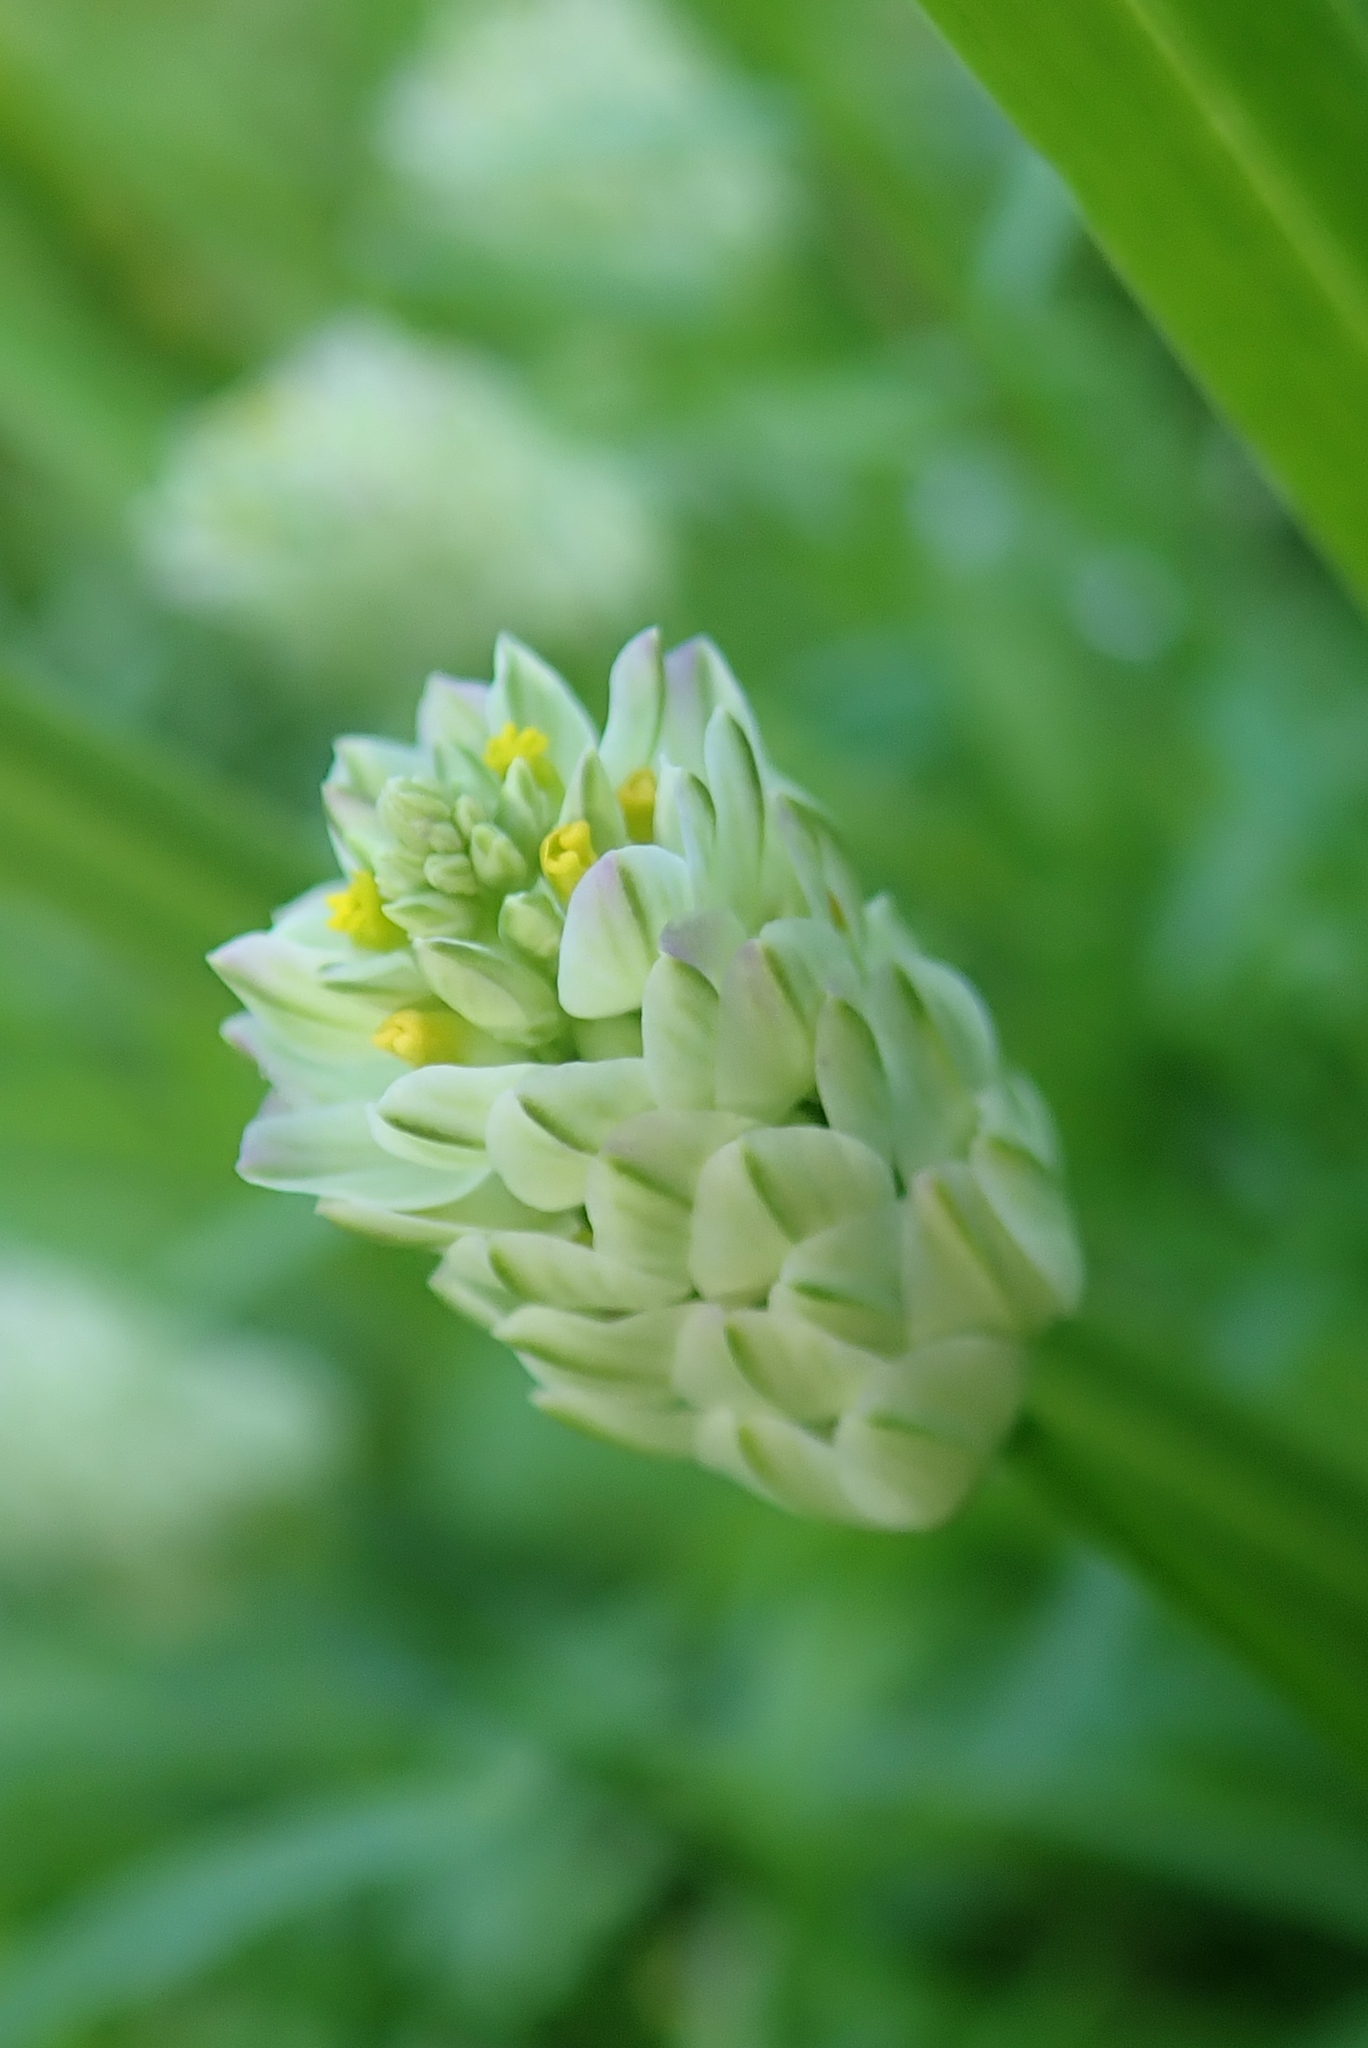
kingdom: Plantae
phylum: Tracheophyta
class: Magnoliopsida
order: Fabales
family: Polygalaceae
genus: Polygala
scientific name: Polygala sanguinea
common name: Blood milkwort
